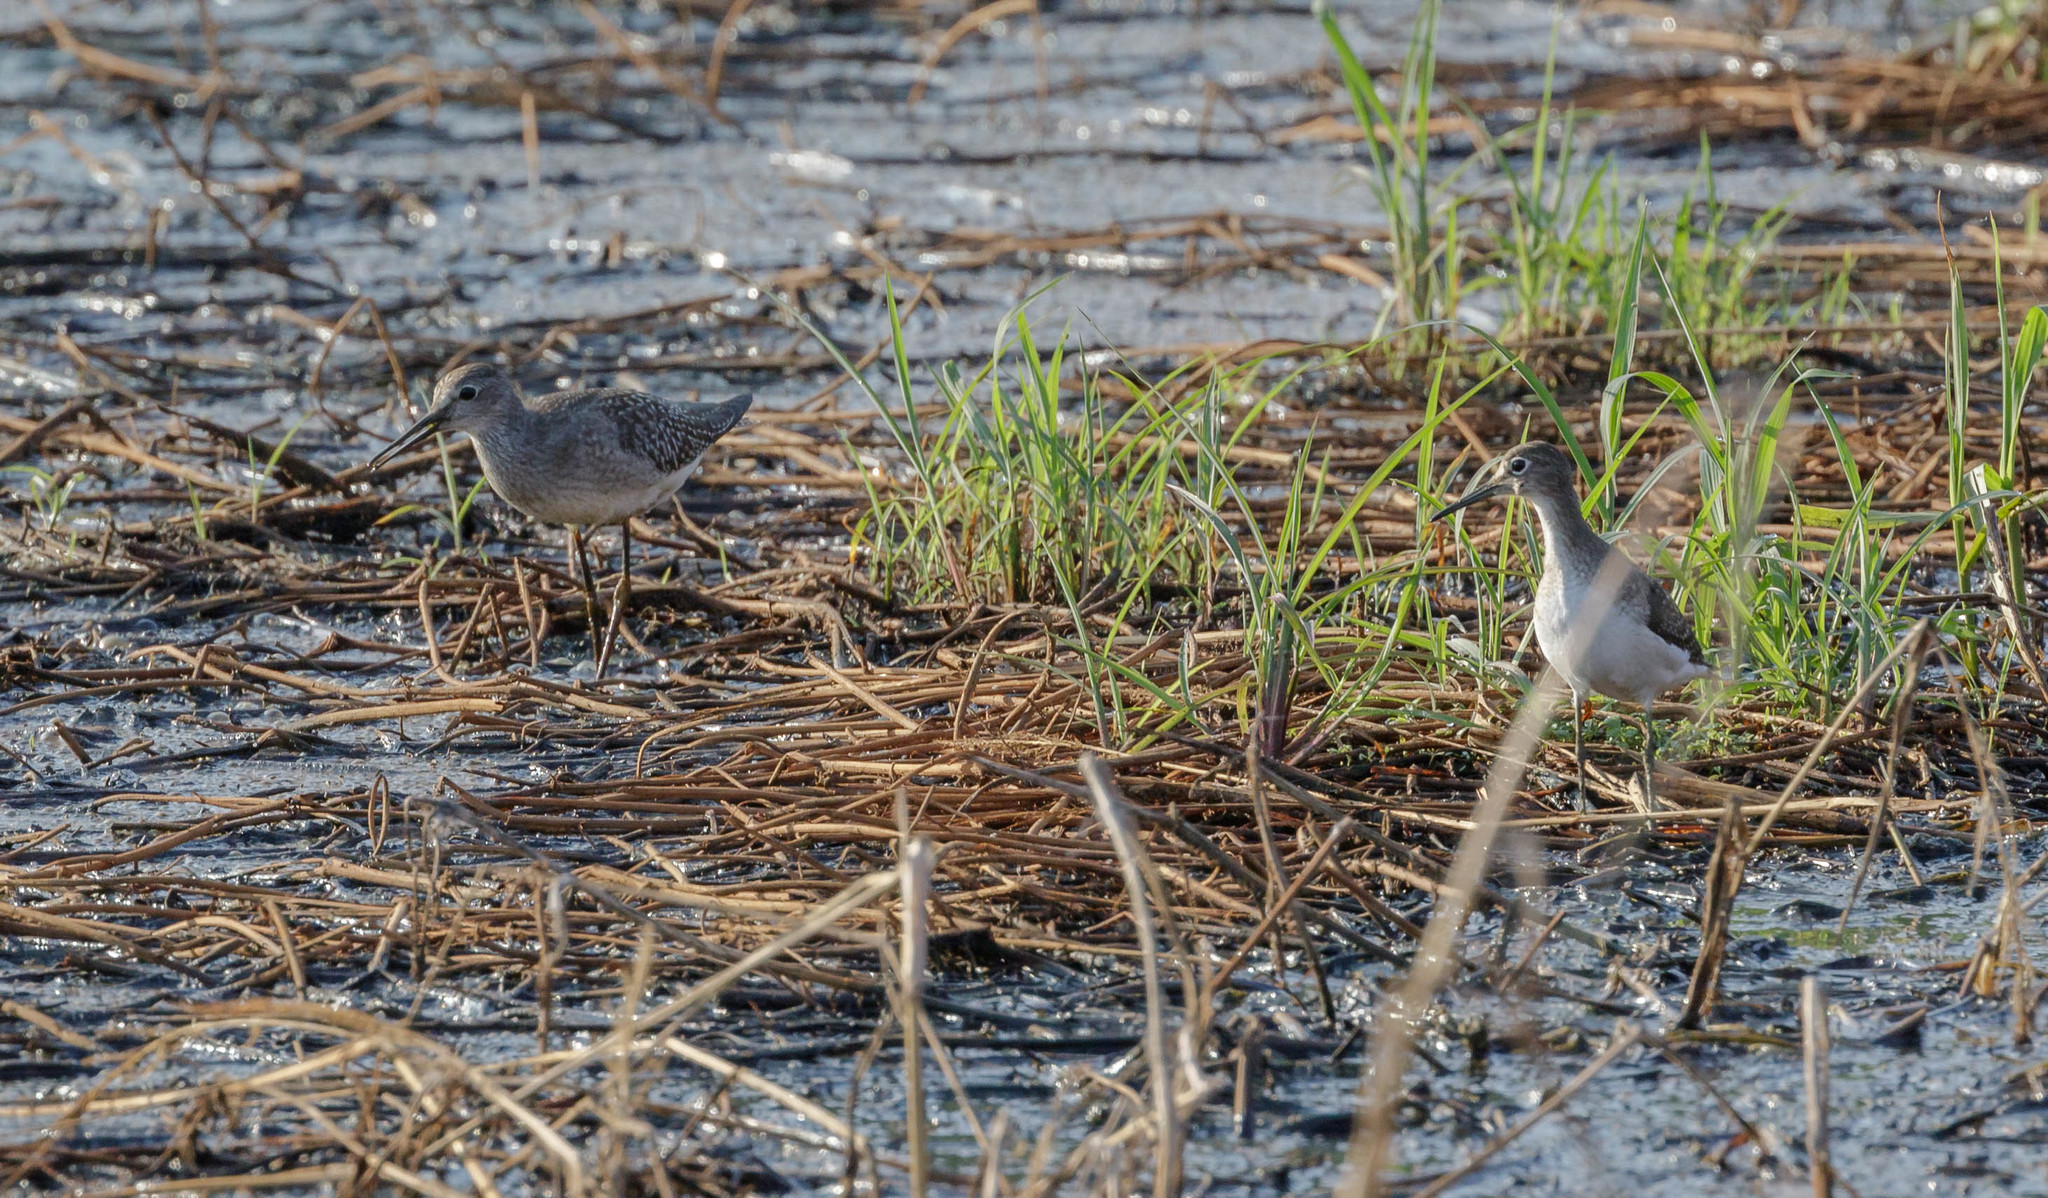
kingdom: Animalia
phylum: Chordata
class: Aves
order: Charadriiformes
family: Scolopacidae
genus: Tringa
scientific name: Tringa solitaria
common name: Solitary sandpiper
